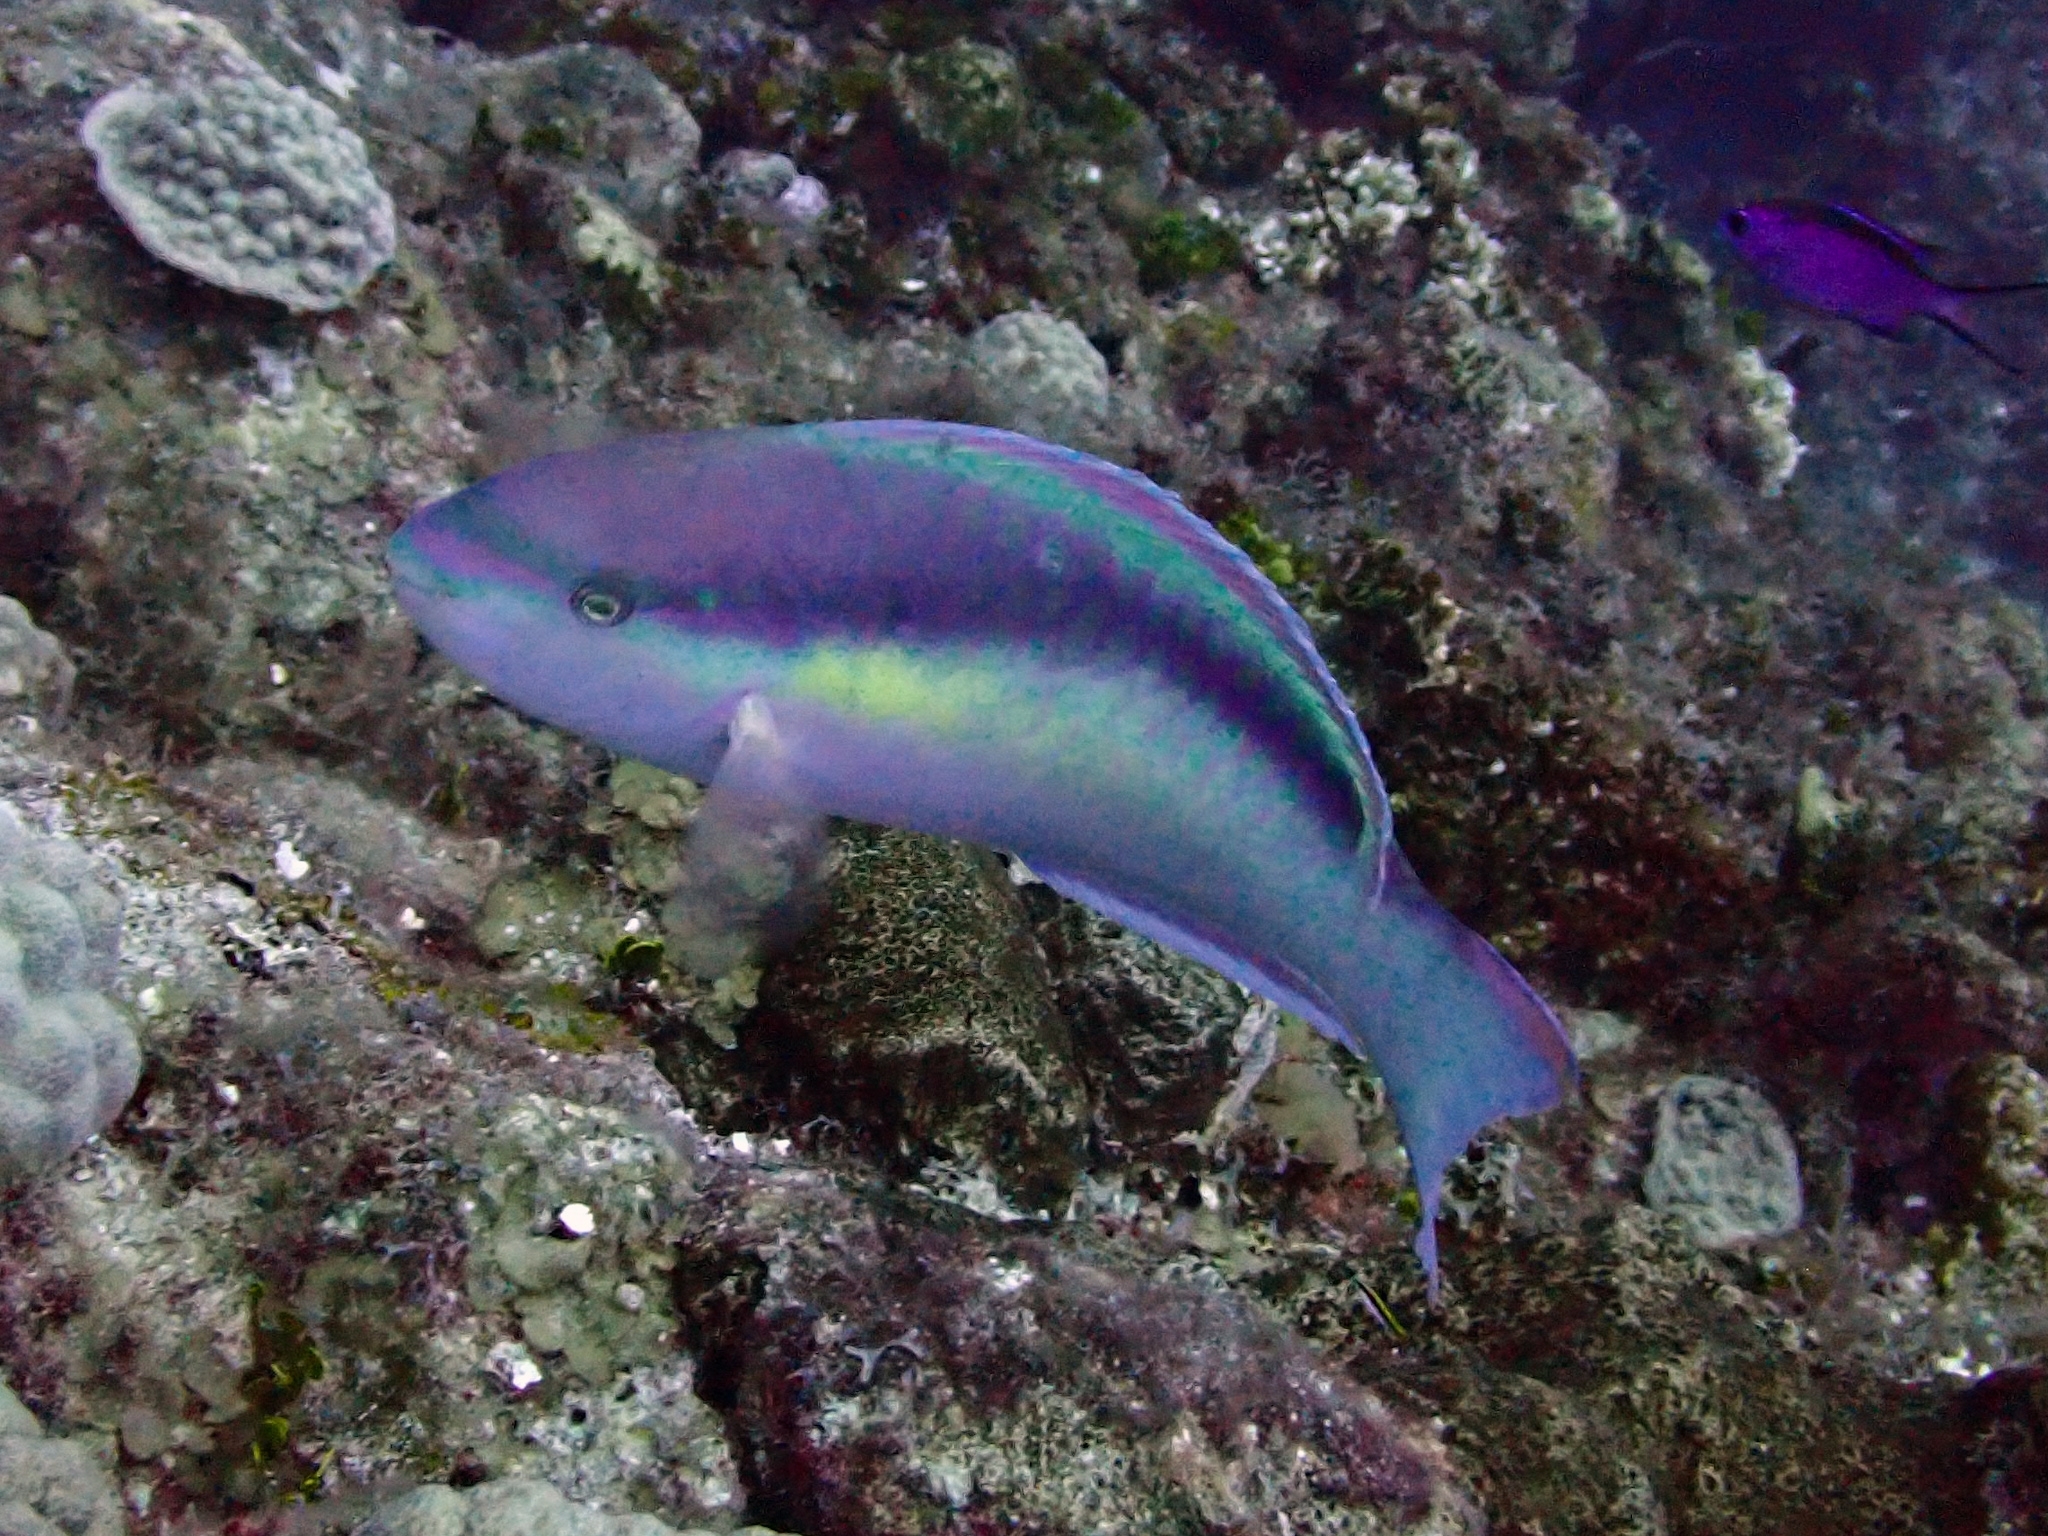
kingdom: Animalia
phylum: Chordata
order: Perciformes
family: Scaridae
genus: Scarus
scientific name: Scarus taeniopterus
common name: Princess parrotfish
